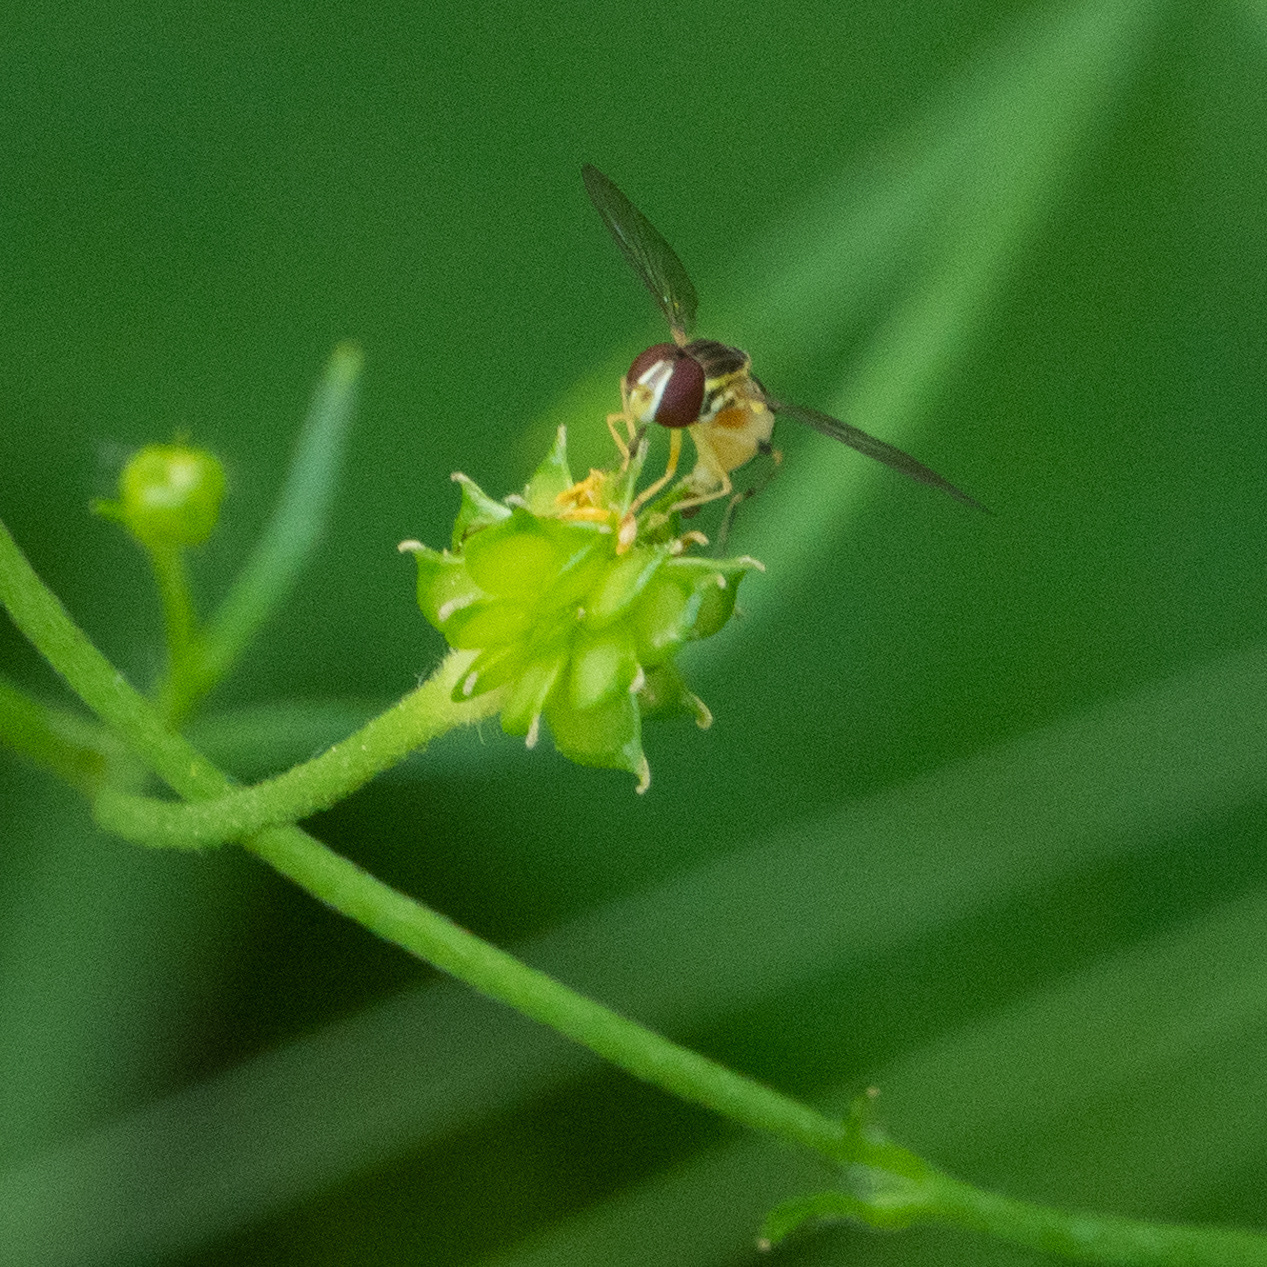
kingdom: Animalia
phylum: Arthropoda
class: Insecta
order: Diptera
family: Syrphidae
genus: Toxomerus
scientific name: Toxomerus geminatus
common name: Eastern calligrapher
